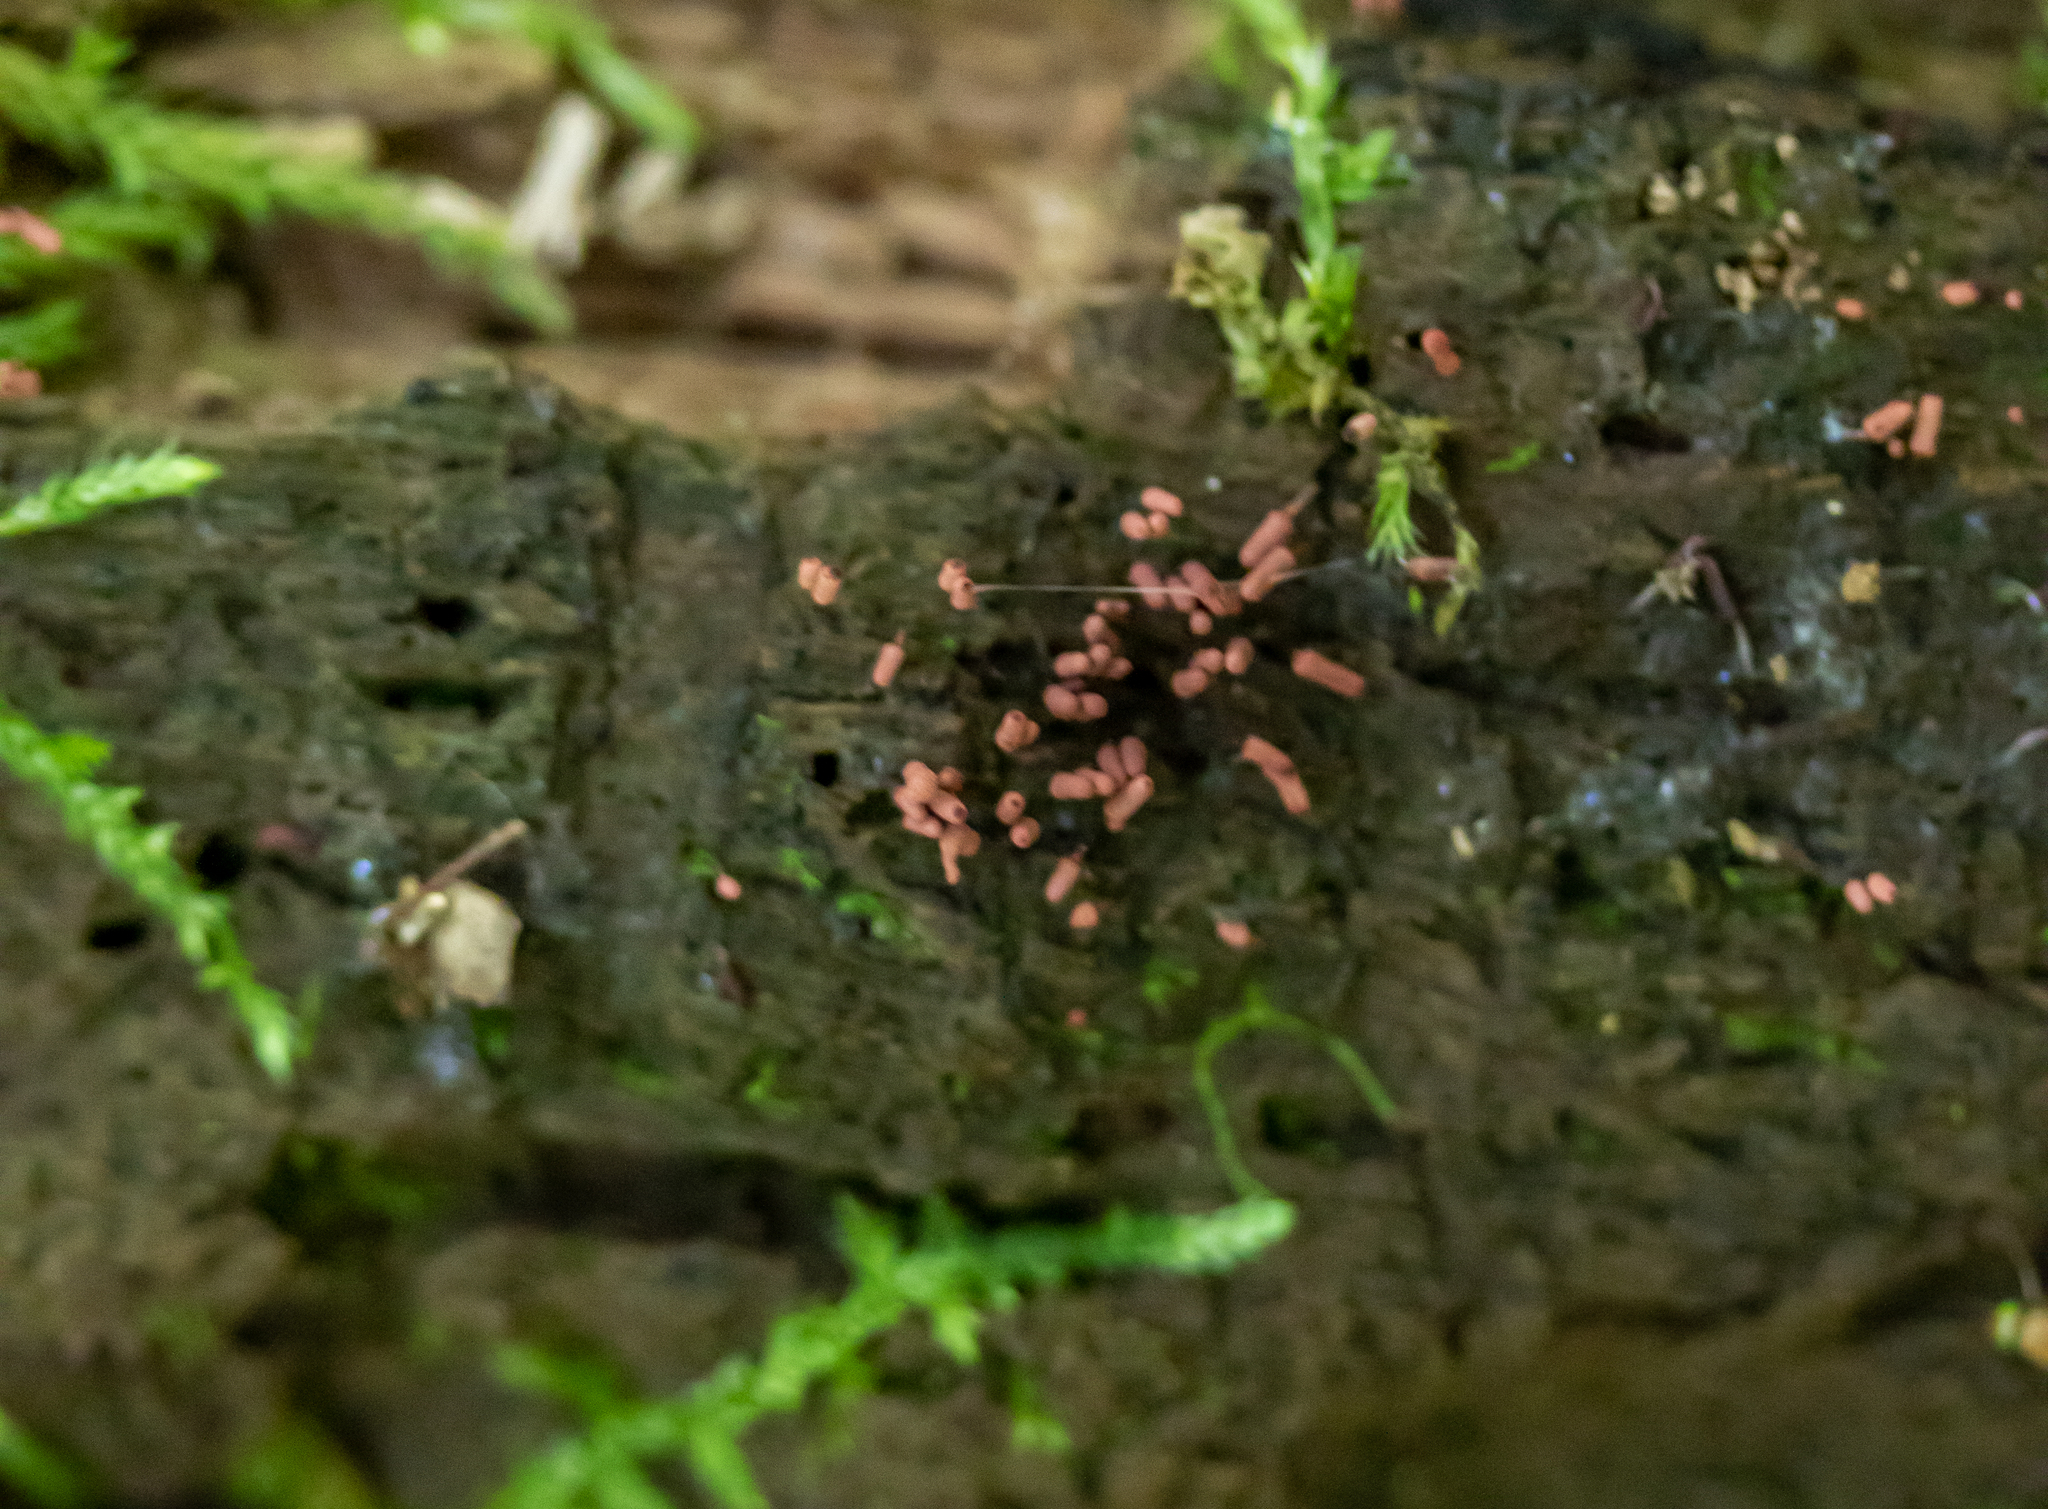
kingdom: Protozoa
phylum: Mycetozoa
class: Myxomycetes
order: Trichiales
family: Arcyriaceae
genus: Arcyria
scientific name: Arcyria denudata
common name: Carnival candy slime mold
